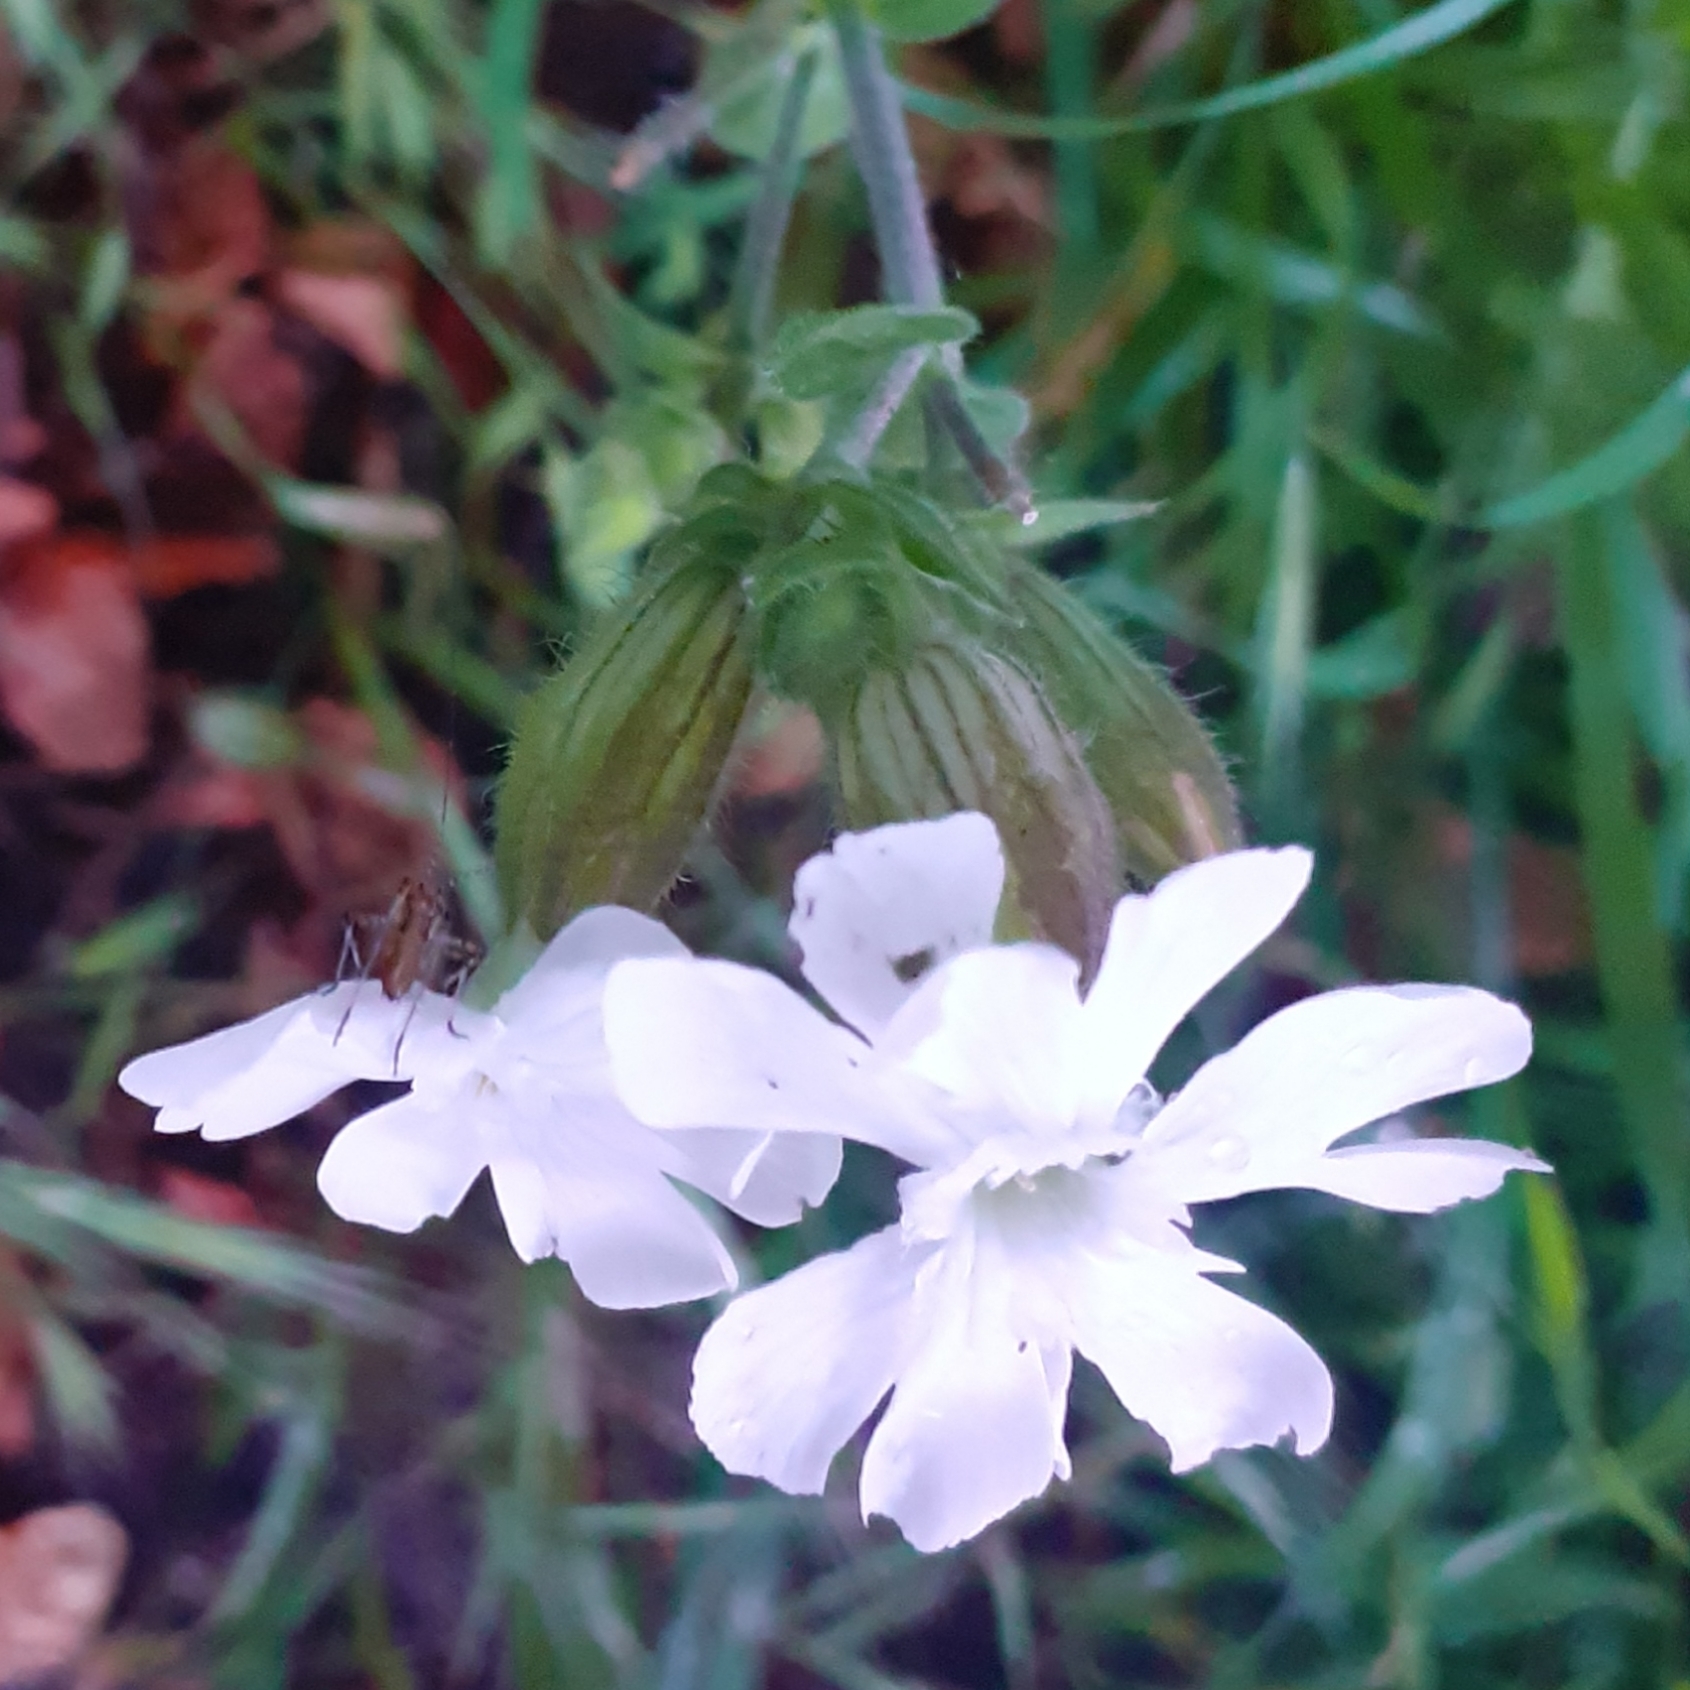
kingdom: Plantae
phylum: Tracheophyta
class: Magnoliopsida
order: Caryophyllales
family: Caryophyllaceae
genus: Silene
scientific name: Silene latifolia
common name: White campion
